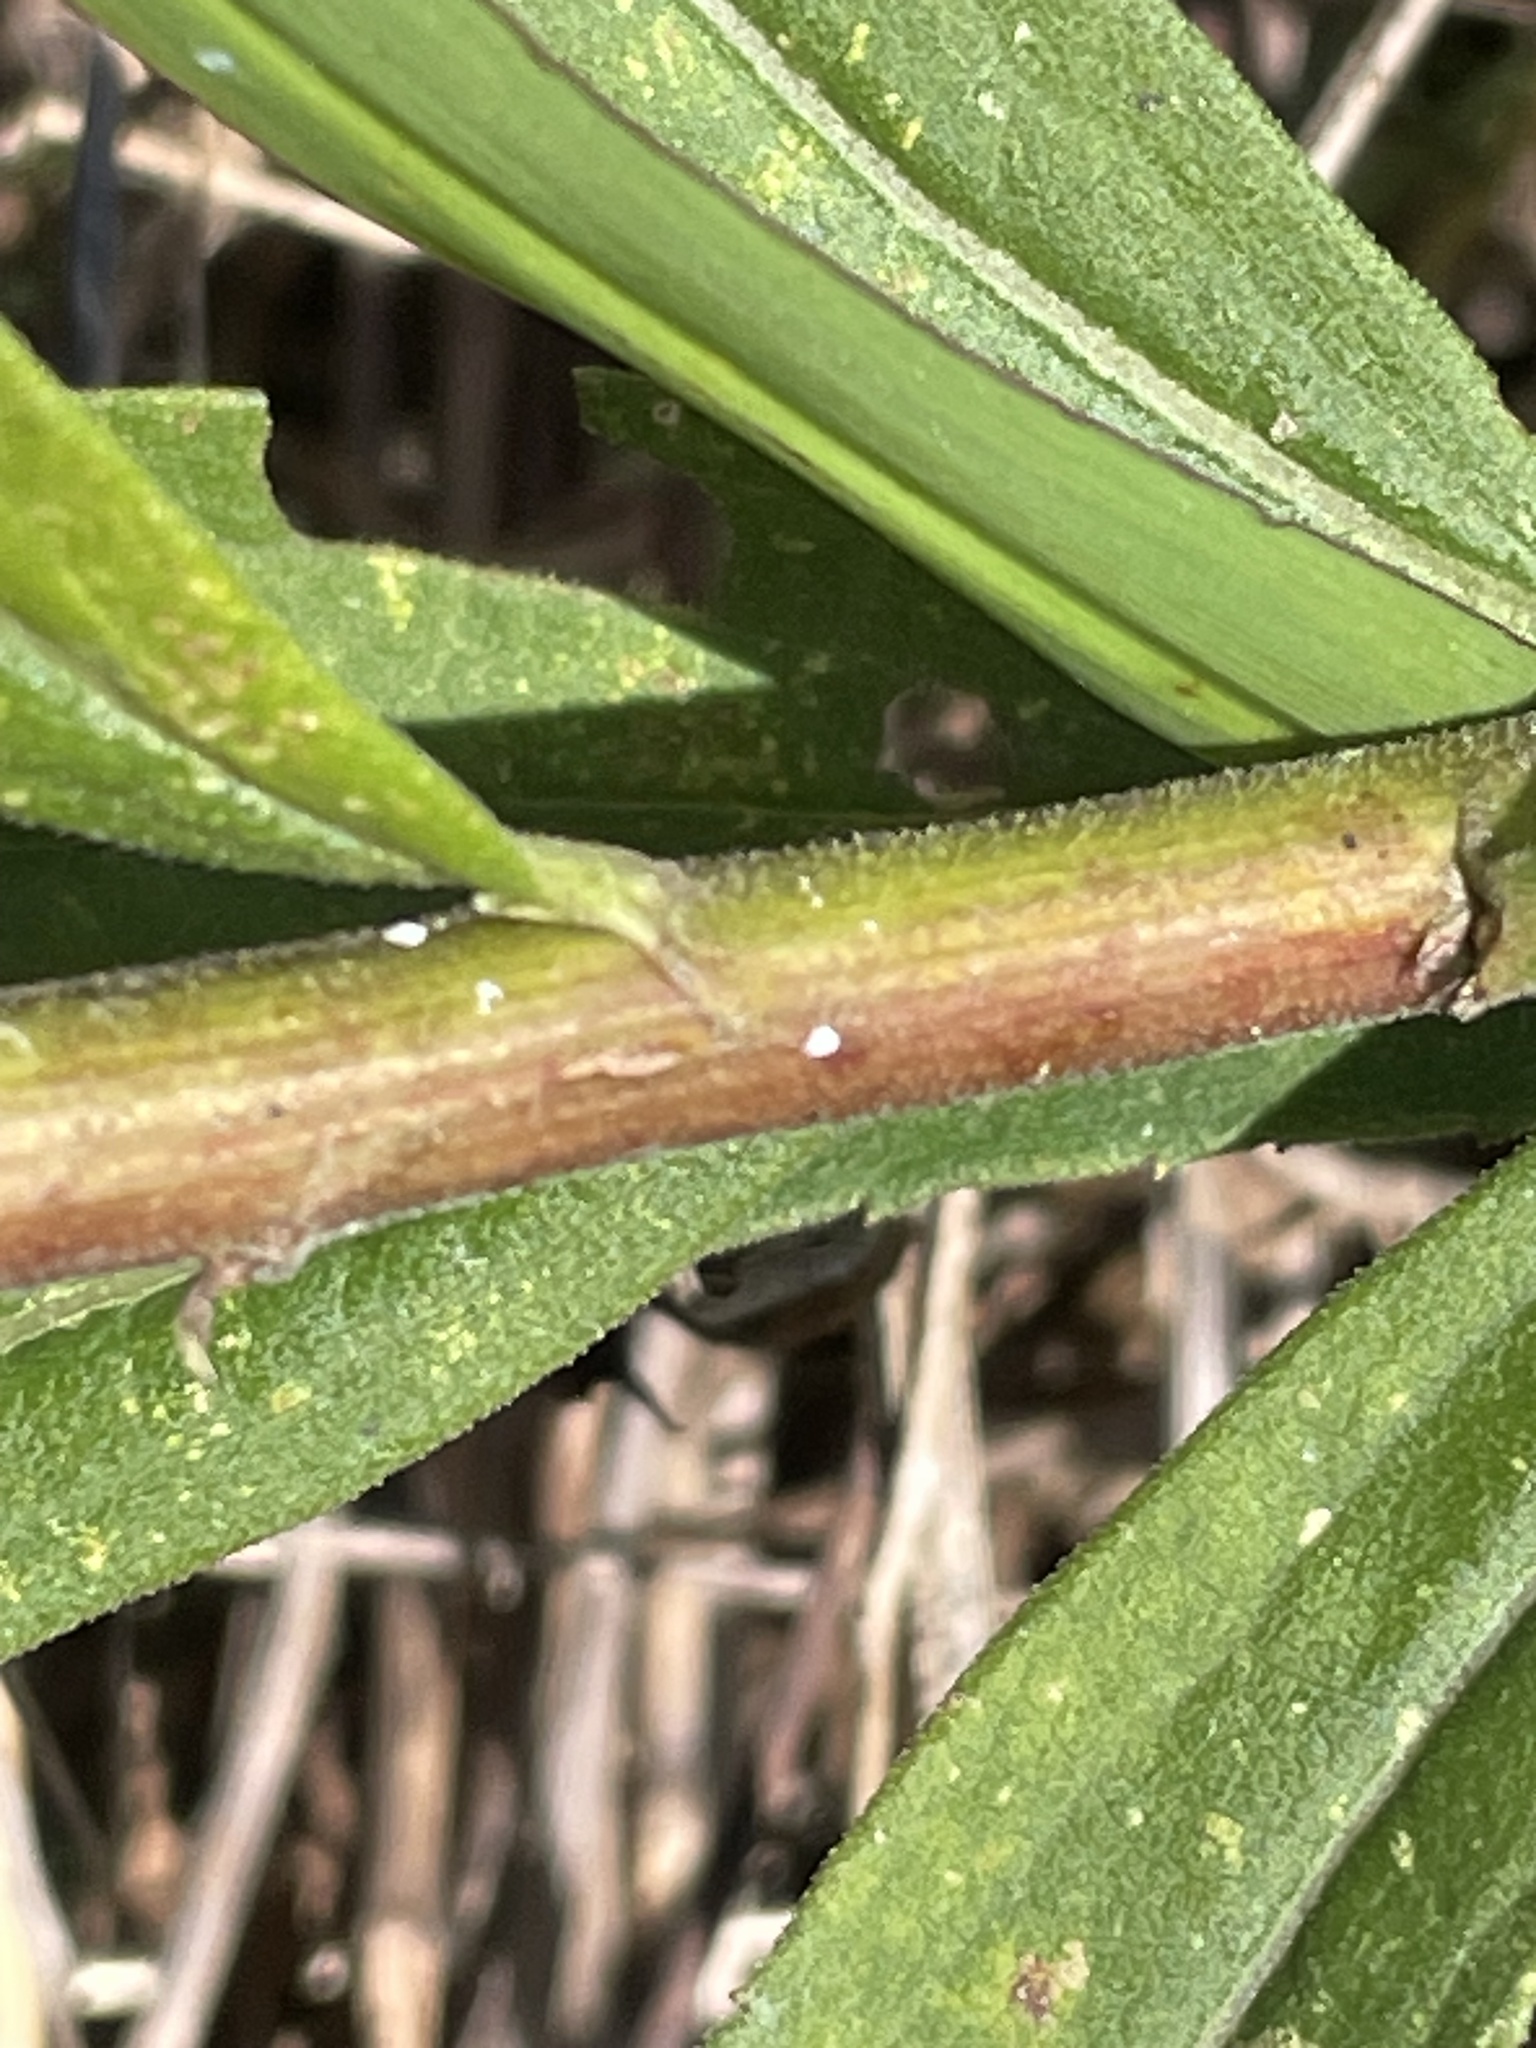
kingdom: Plantae
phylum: Tracheophyta
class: Magnoliopsida
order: Asterales
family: Asteraceae
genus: Solidago
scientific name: Solidago altissima
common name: Late goldenrod
